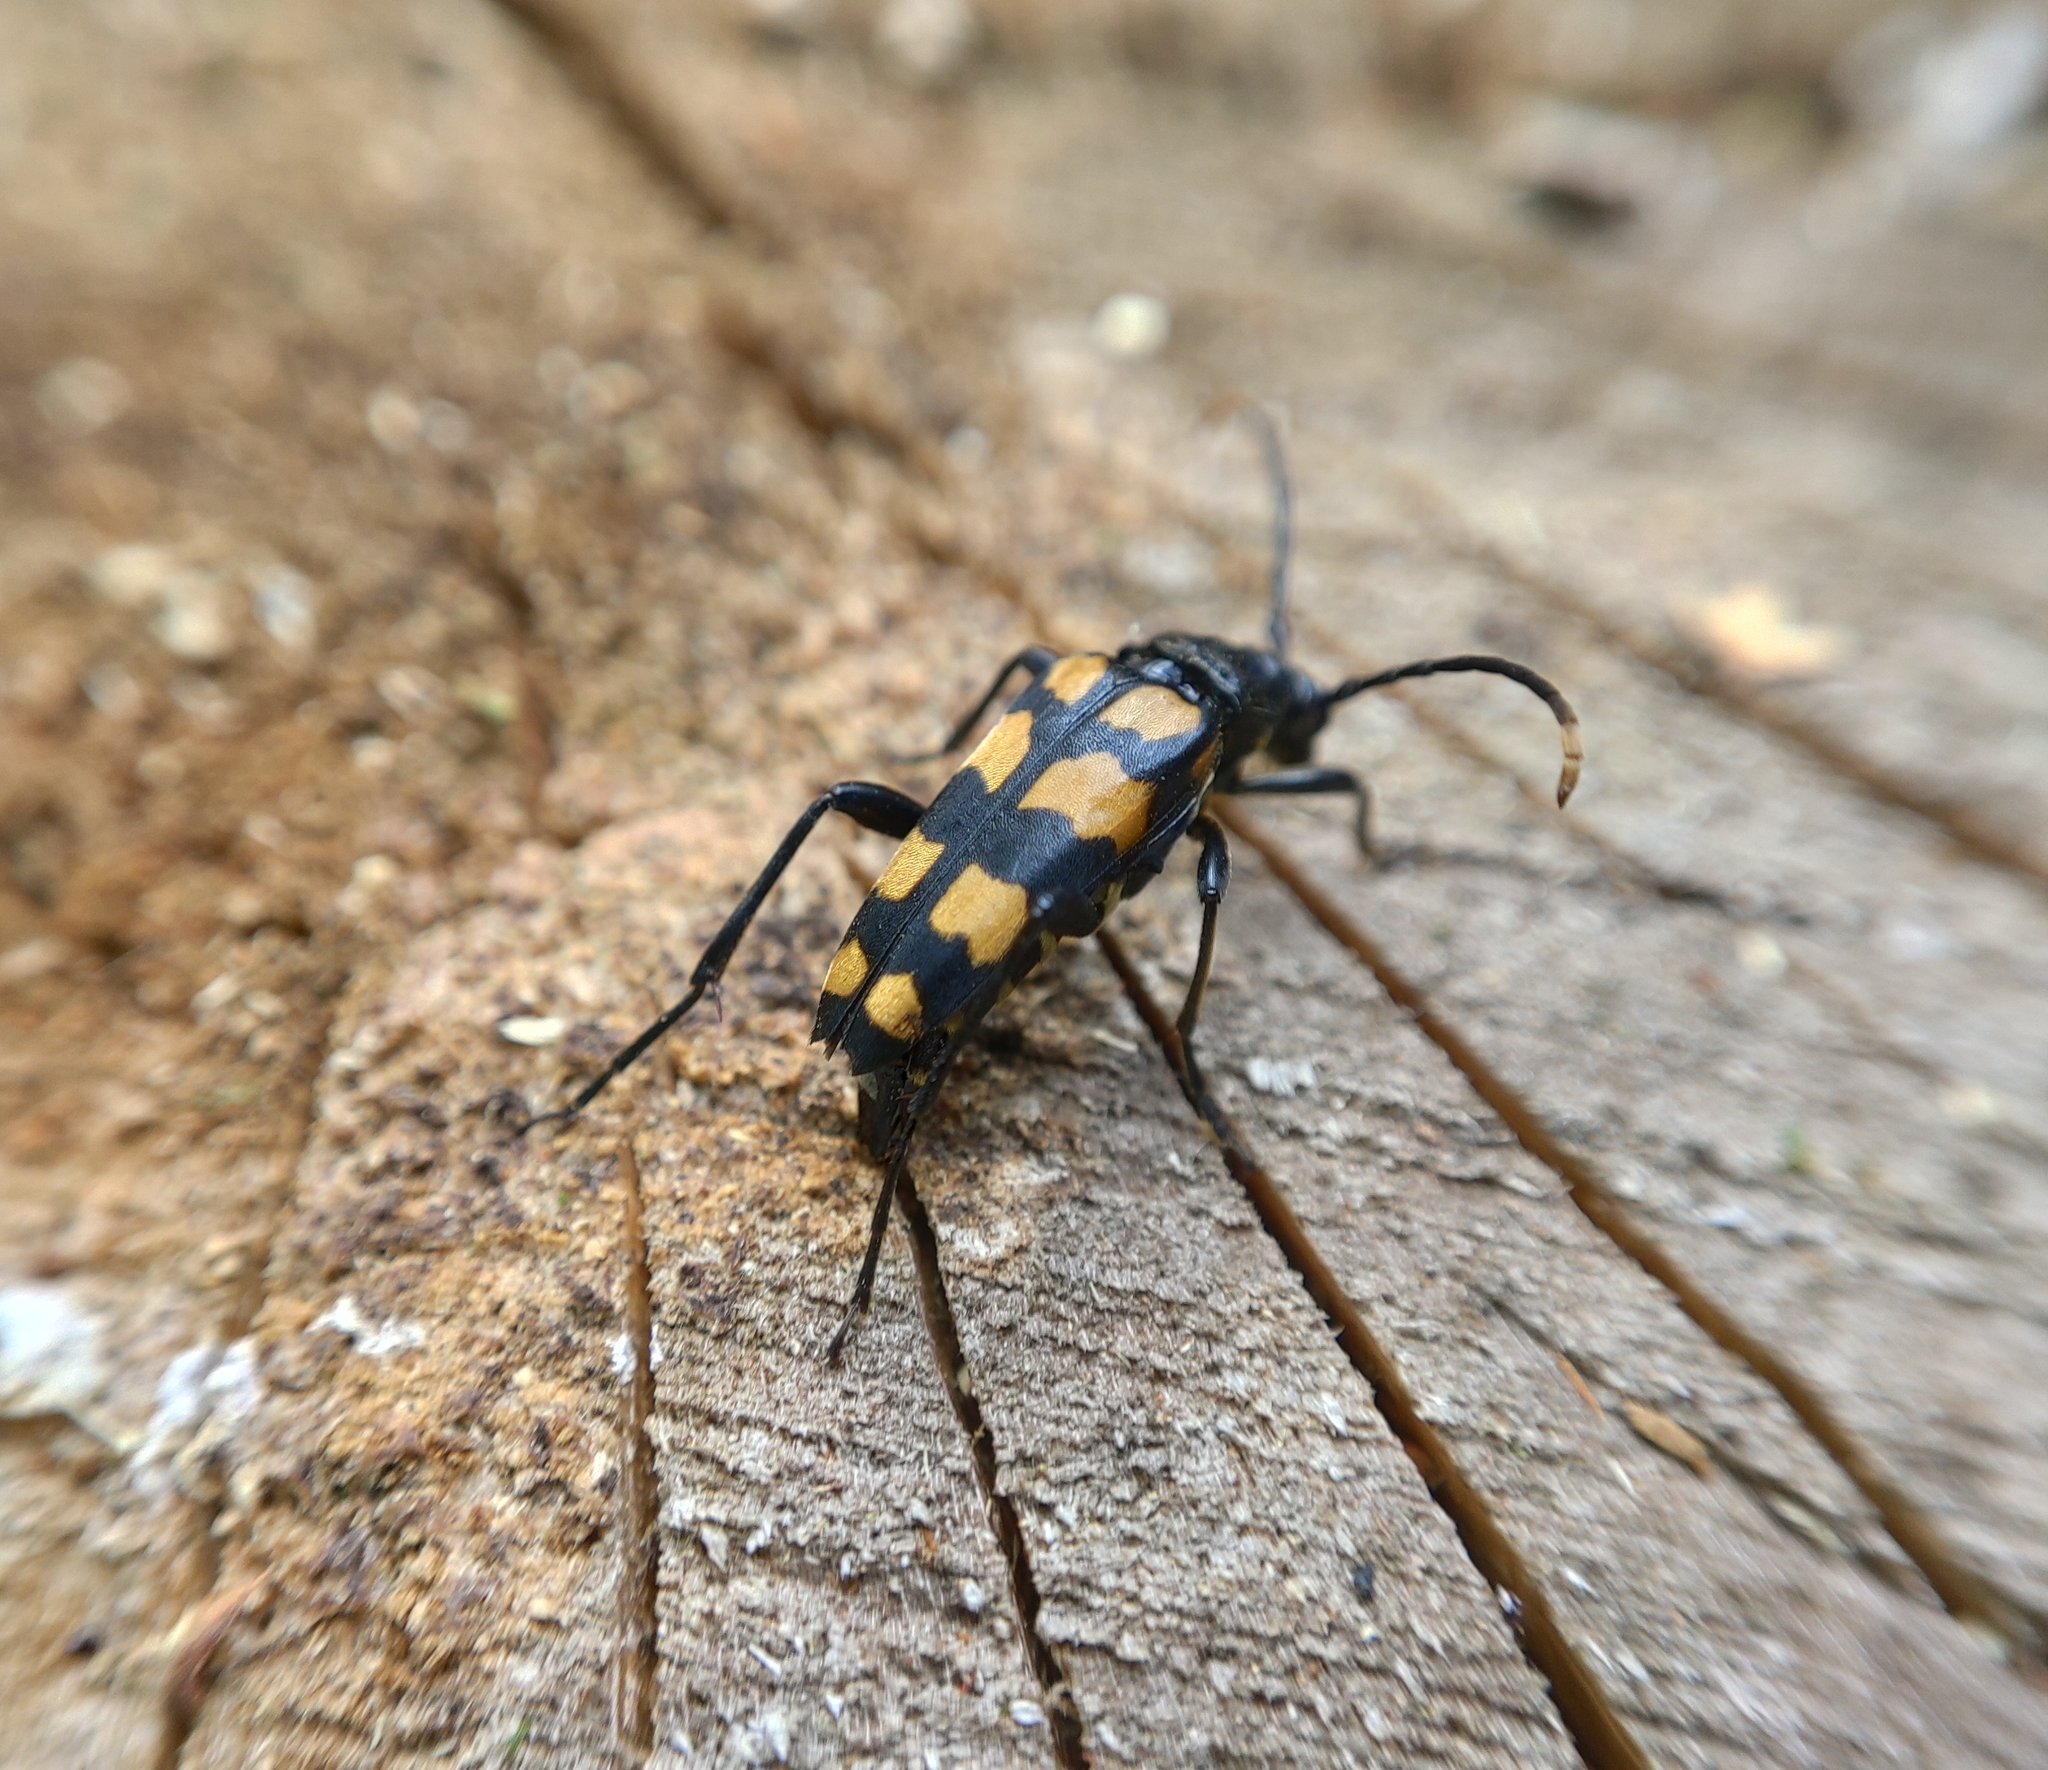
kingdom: Animalia
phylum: Arthropoda
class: Insecta
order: Coleoptera
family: Cerambycidae
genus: Leptura
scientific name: Leptura quadrifasciata
